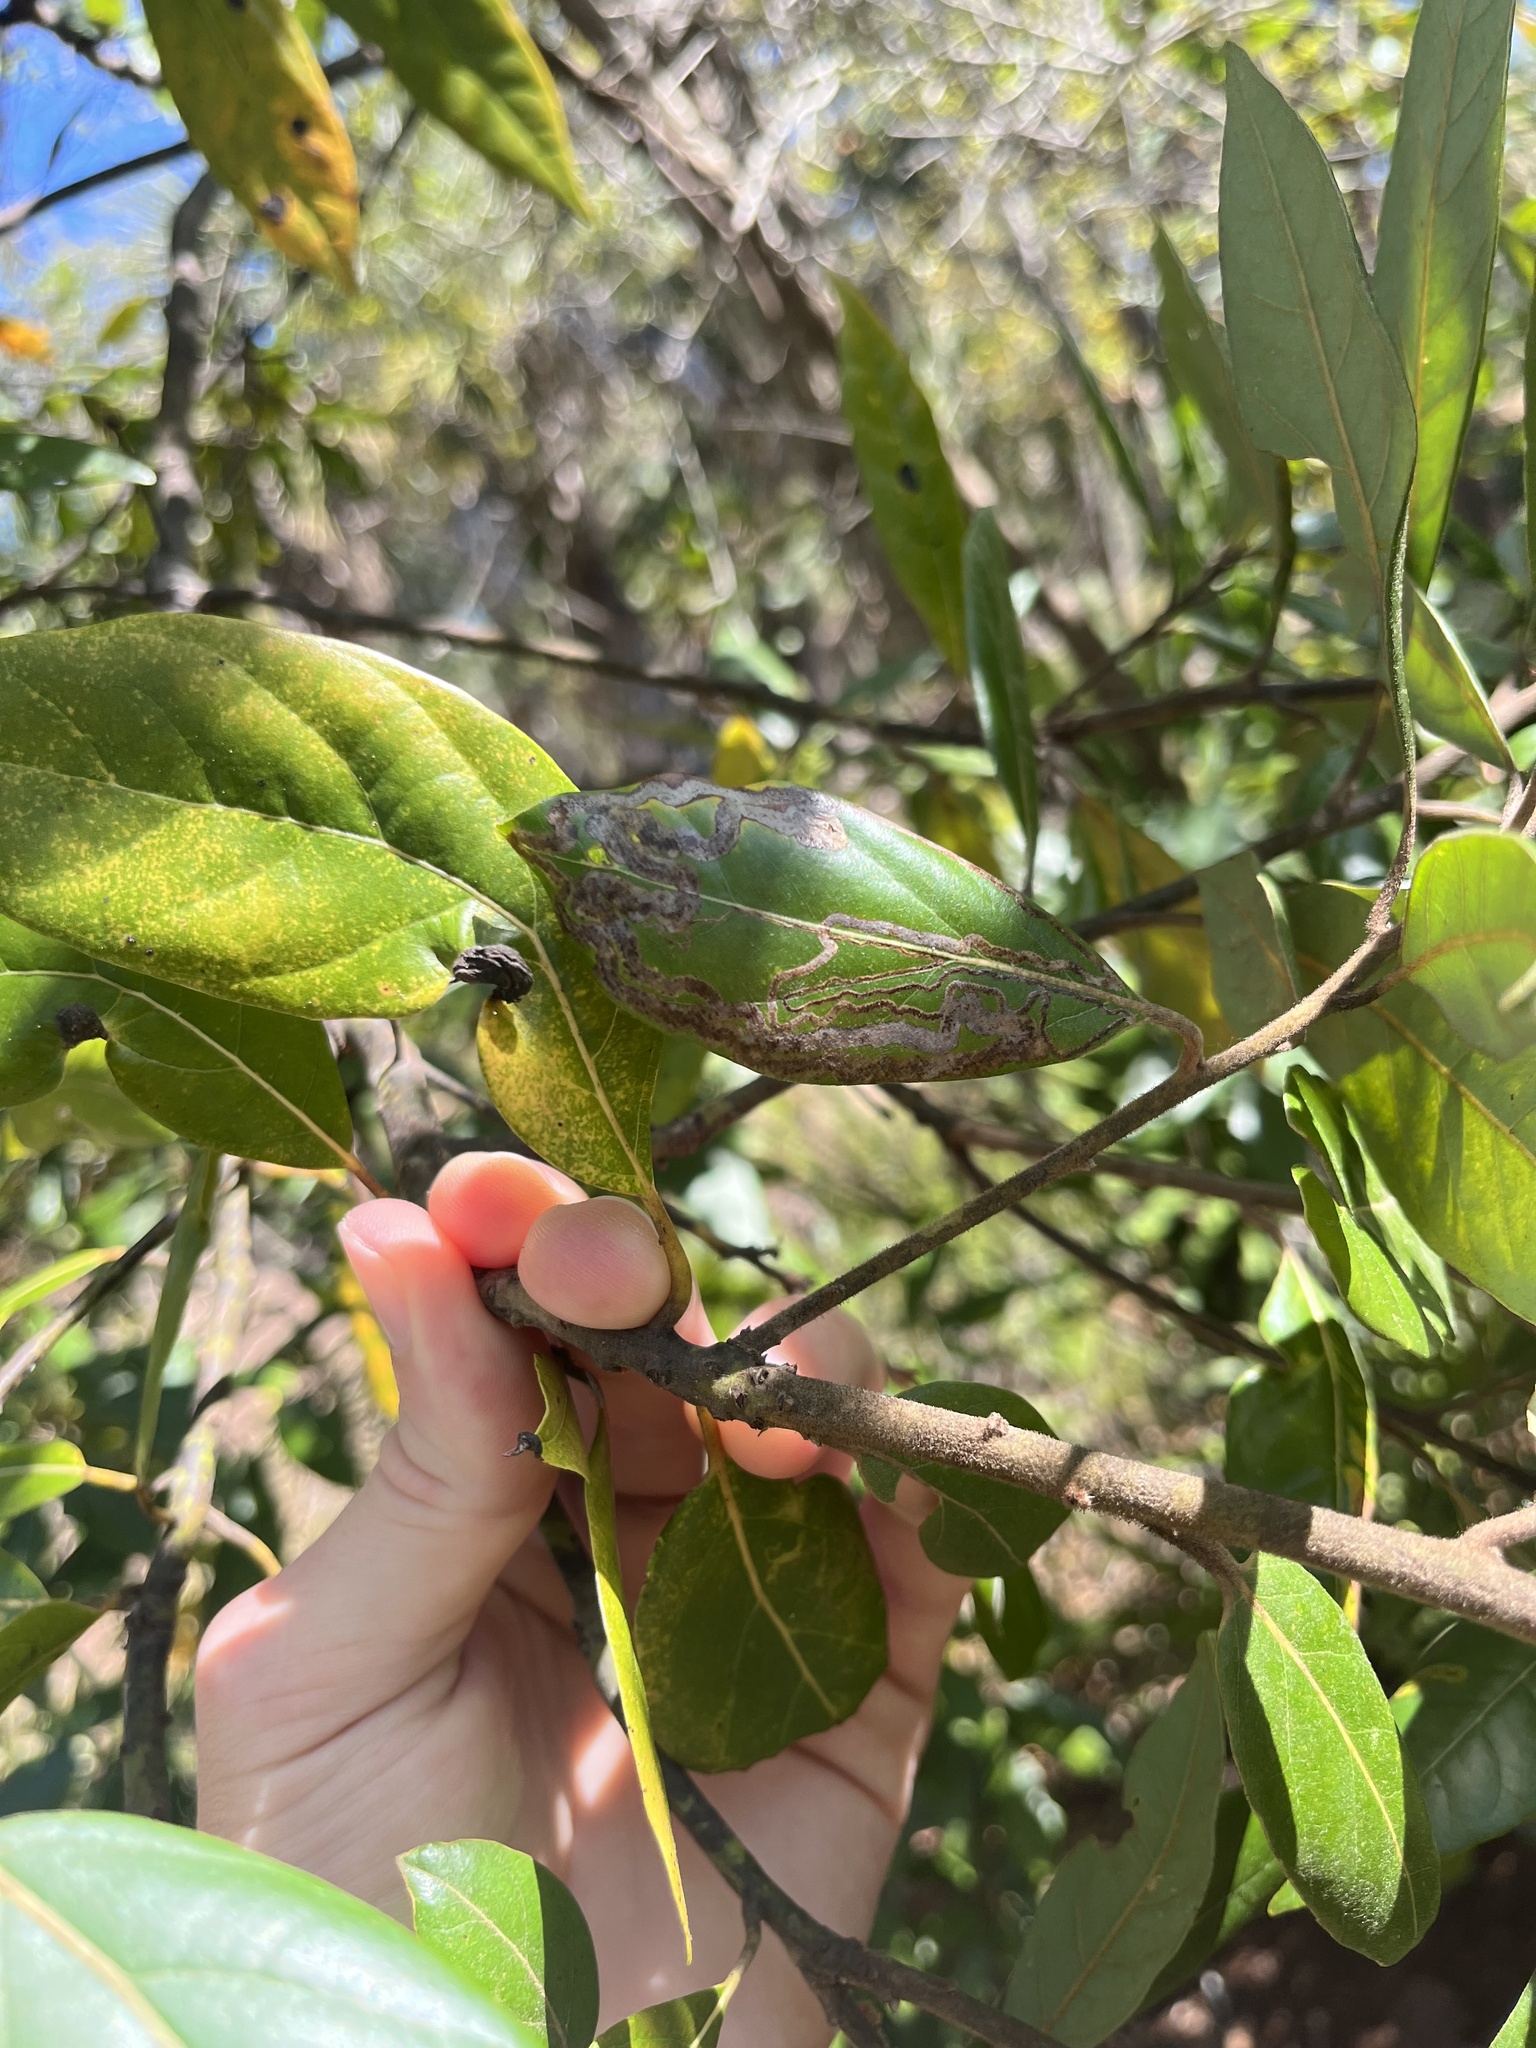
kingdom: Animalia
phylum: Arthropoda
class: Insecta
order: Lepidoptera
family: Gracillariidae
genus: Phyllocnistis
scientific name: Phyllocnistis hyperpersea
